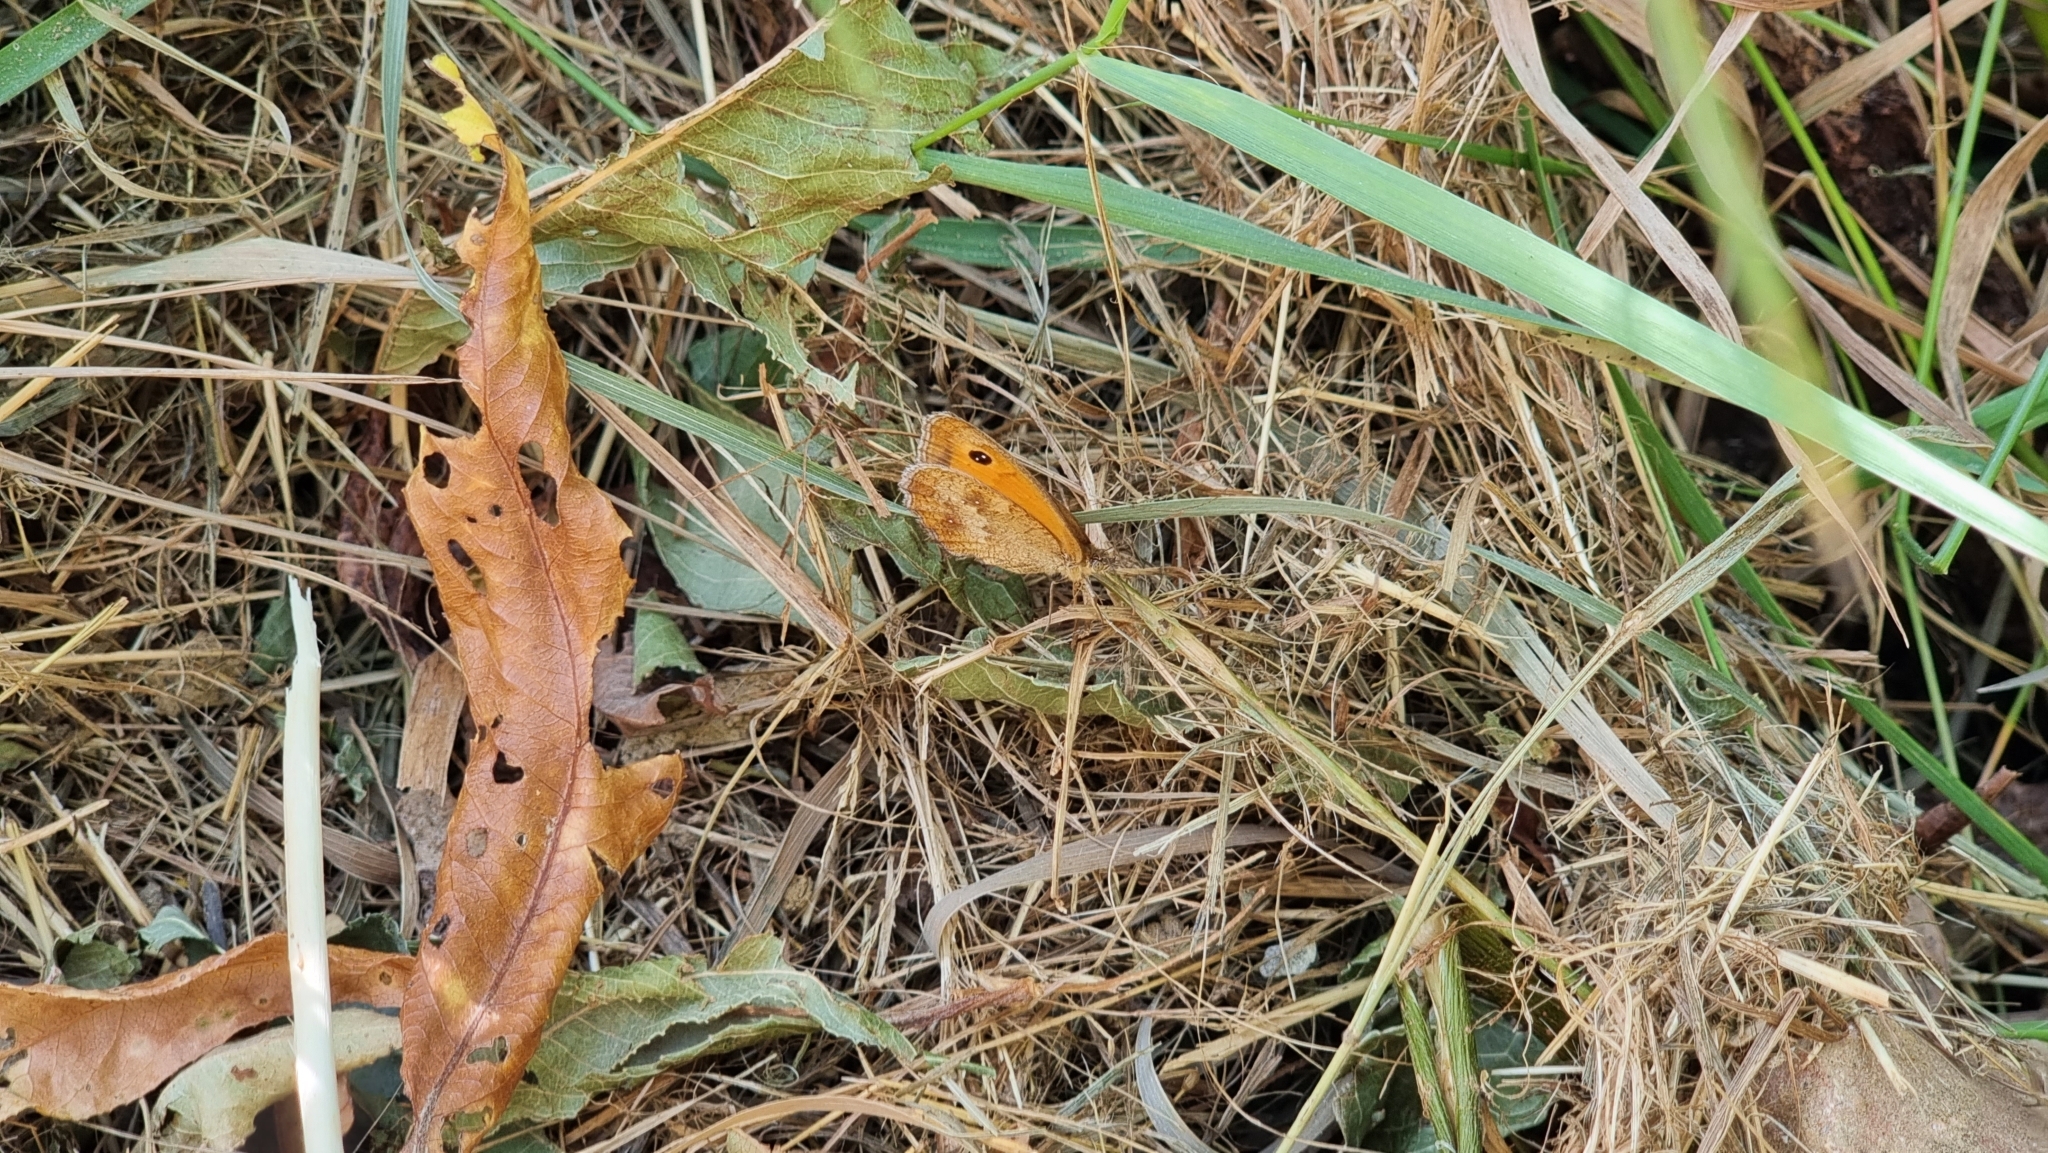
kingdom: Animalia
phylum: Arthropoda
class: Insecta
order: Lepidoptera
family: Nymphalidae
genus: Pyronia
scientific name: Pyronia tithonus
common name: Gatekeeper
